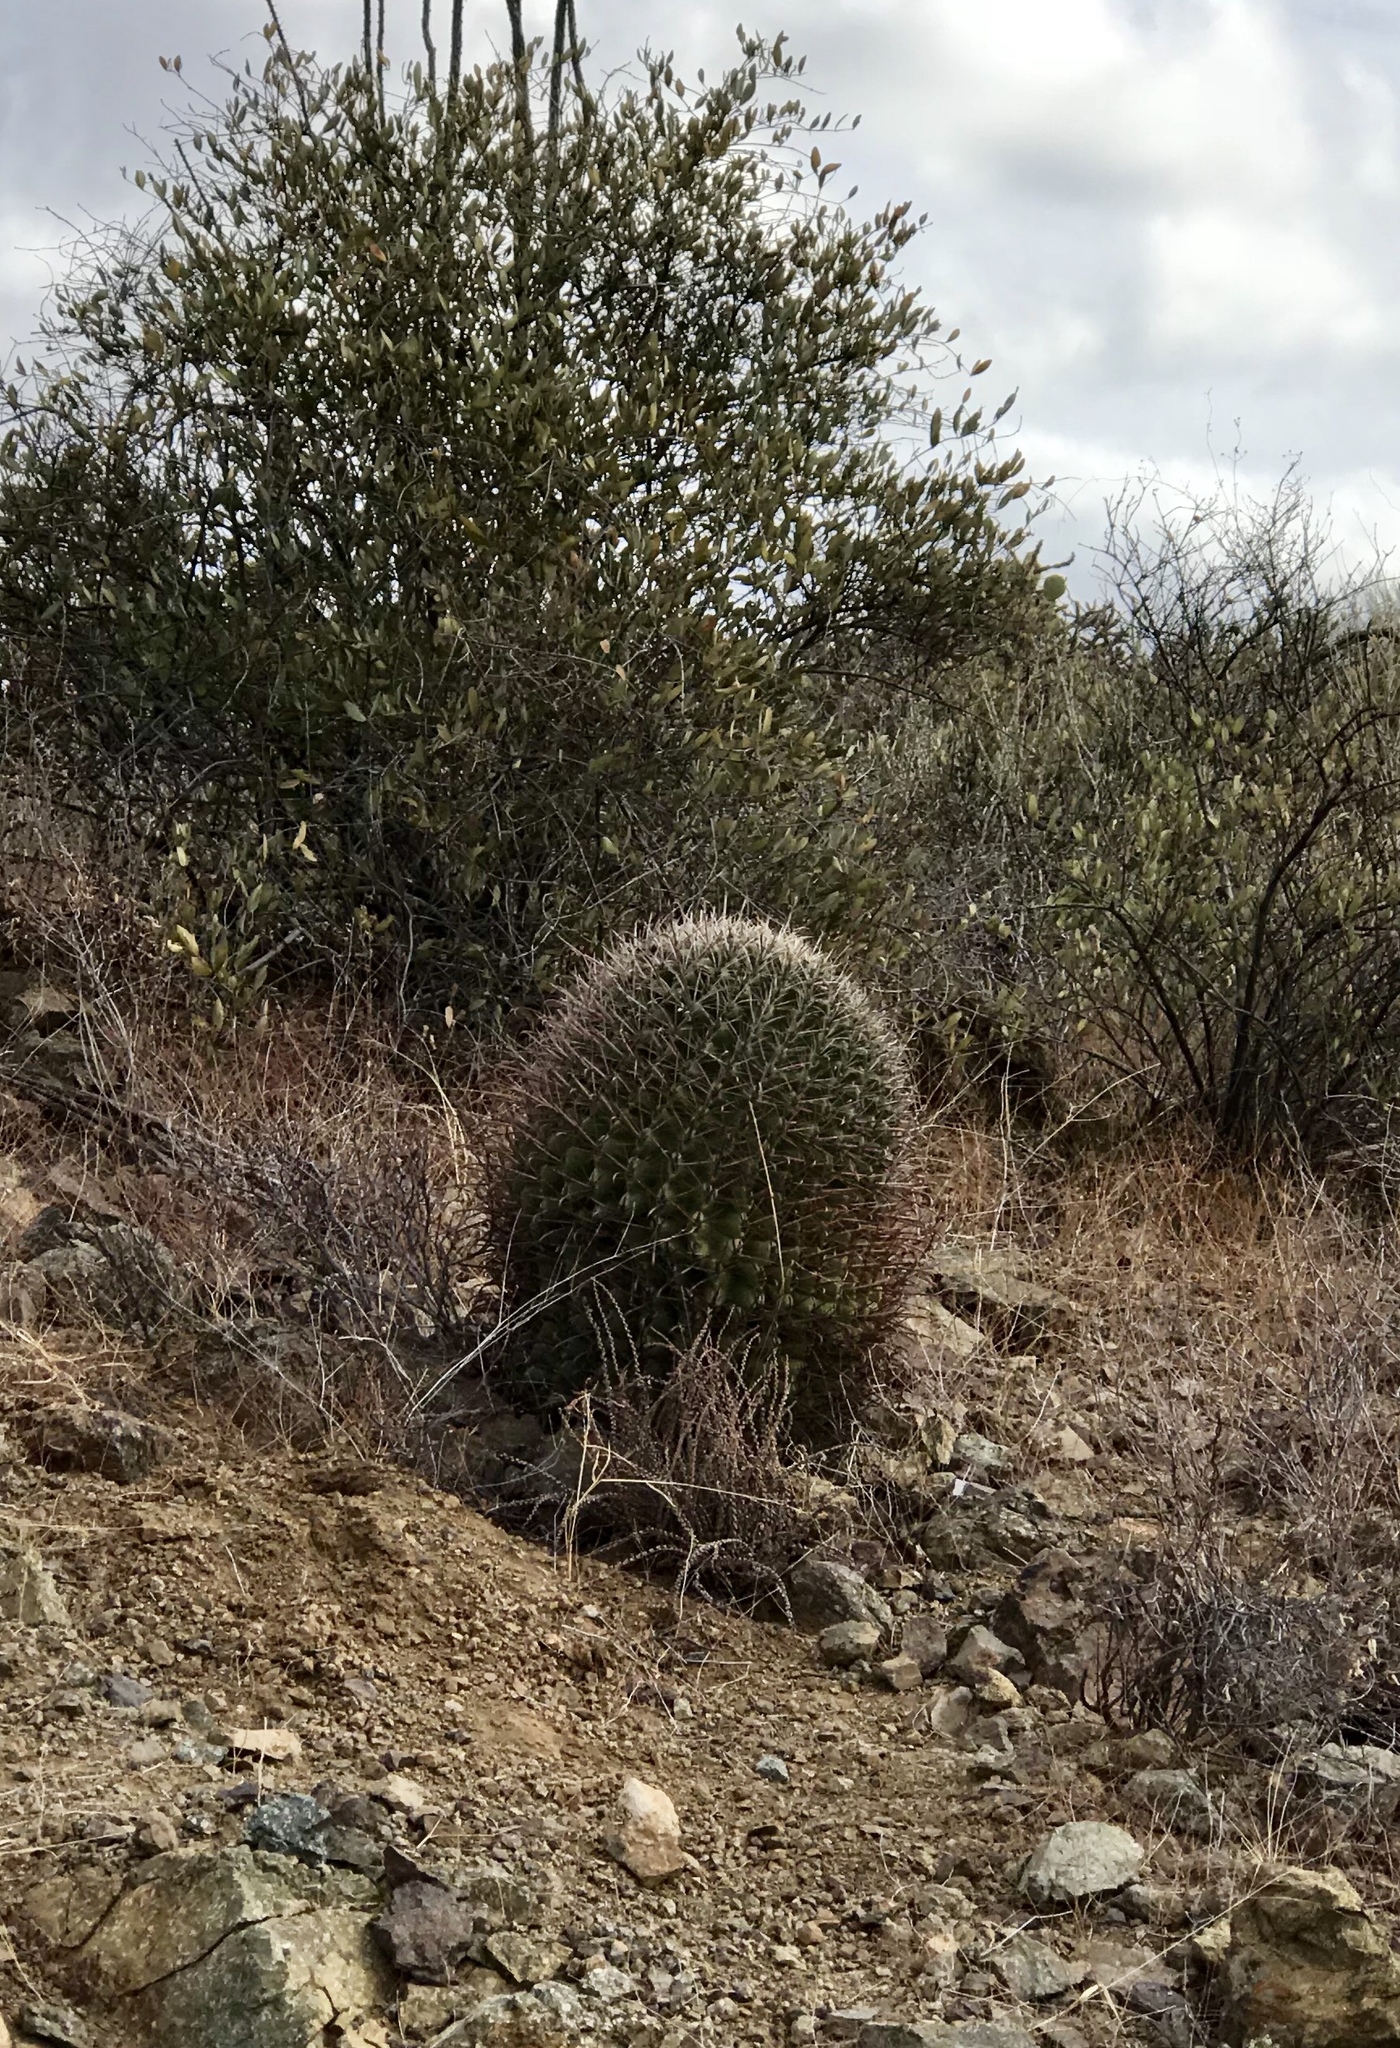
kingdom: Plantae
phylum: Tracheophyta
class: Magnoliopsida
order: Caryophyllales
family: Cactaceae
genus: Ferocactus
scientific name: Ferocactus wislizeni
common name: Candy barrel cactus
